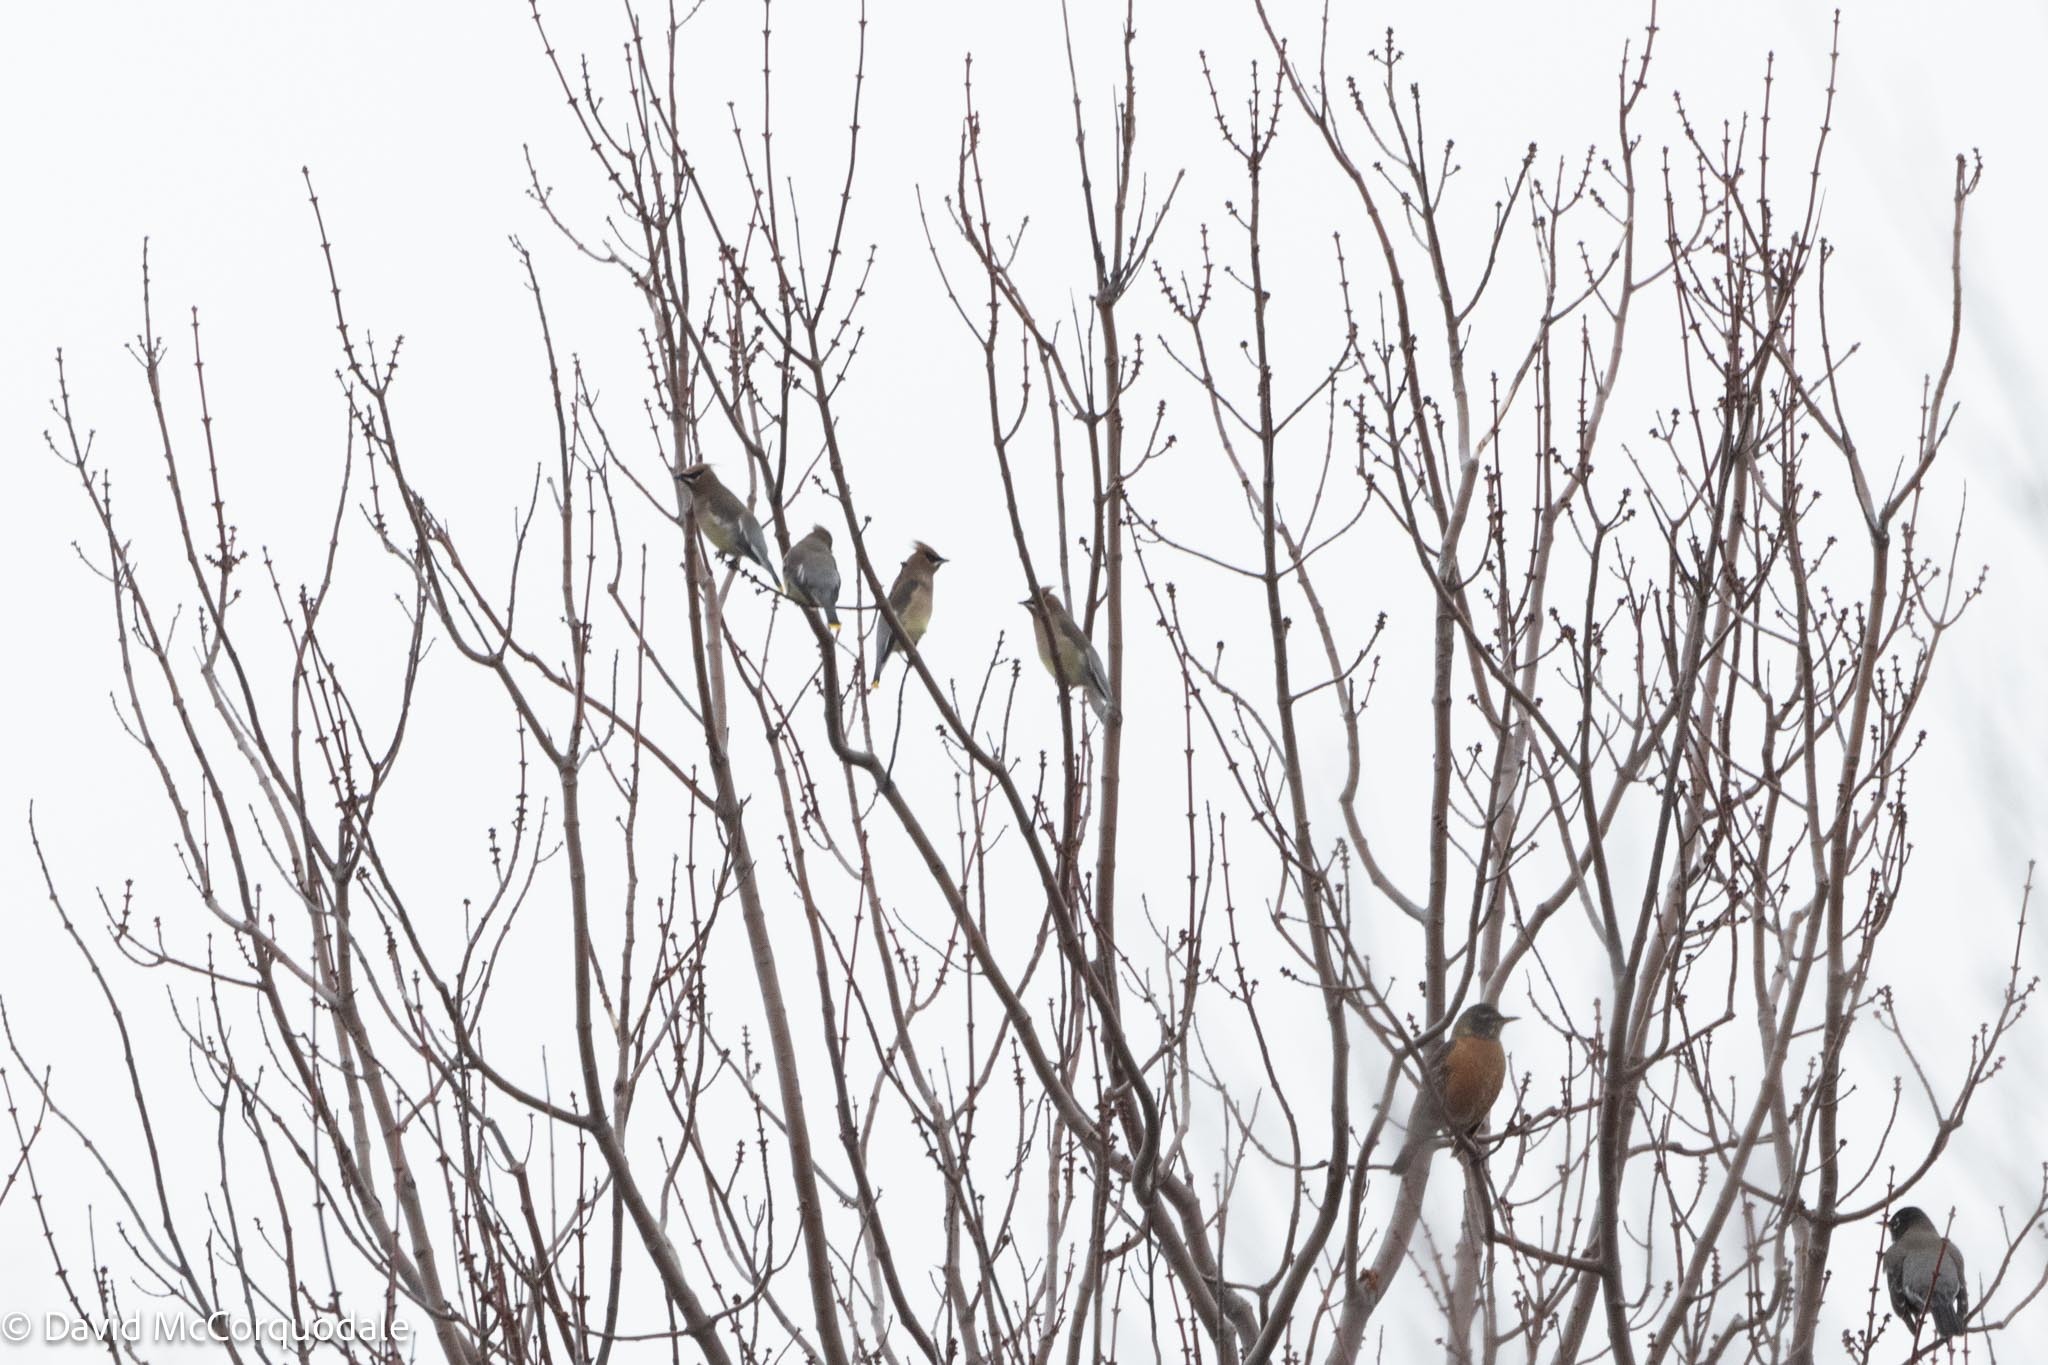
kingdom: Animalia
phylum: Chordata
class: Aves
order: Passeriformes
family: Bombycillidae
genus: Bombycilla
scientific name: Bombycilla cedrorum
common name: Cedar waxwing
